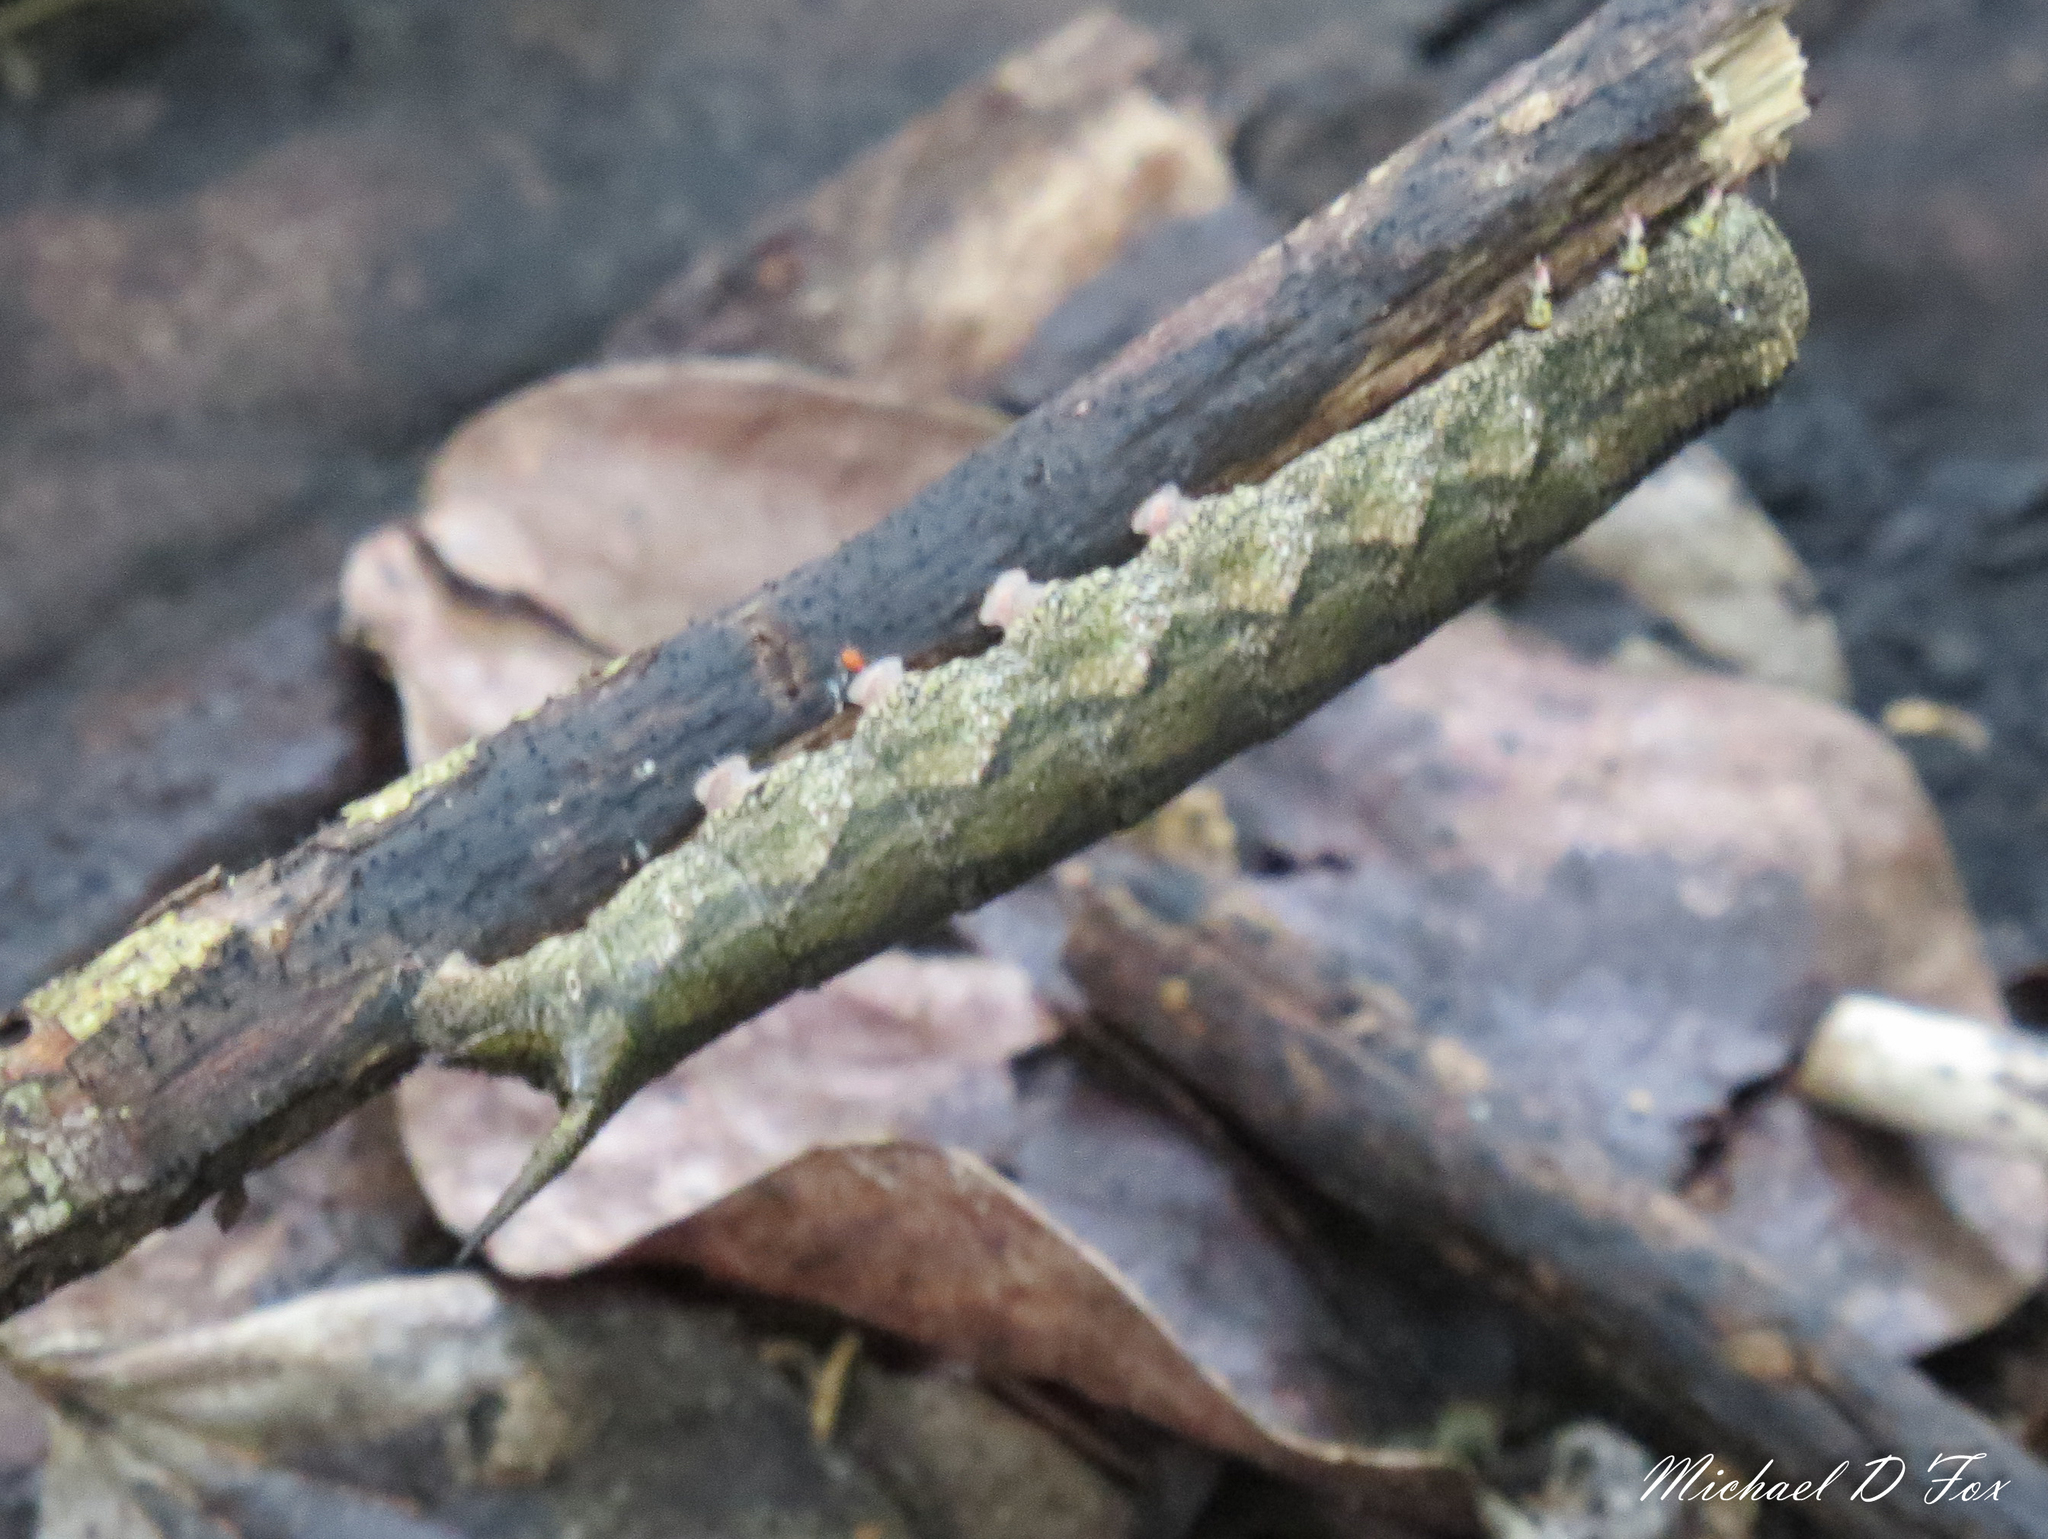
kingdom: Animalia
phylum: Arthropoda
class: Insecta
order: Lepidoptera
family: Sphingidae
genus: Ceratomia
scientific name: Ceratomia hageni
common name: Hagen's sphinx
